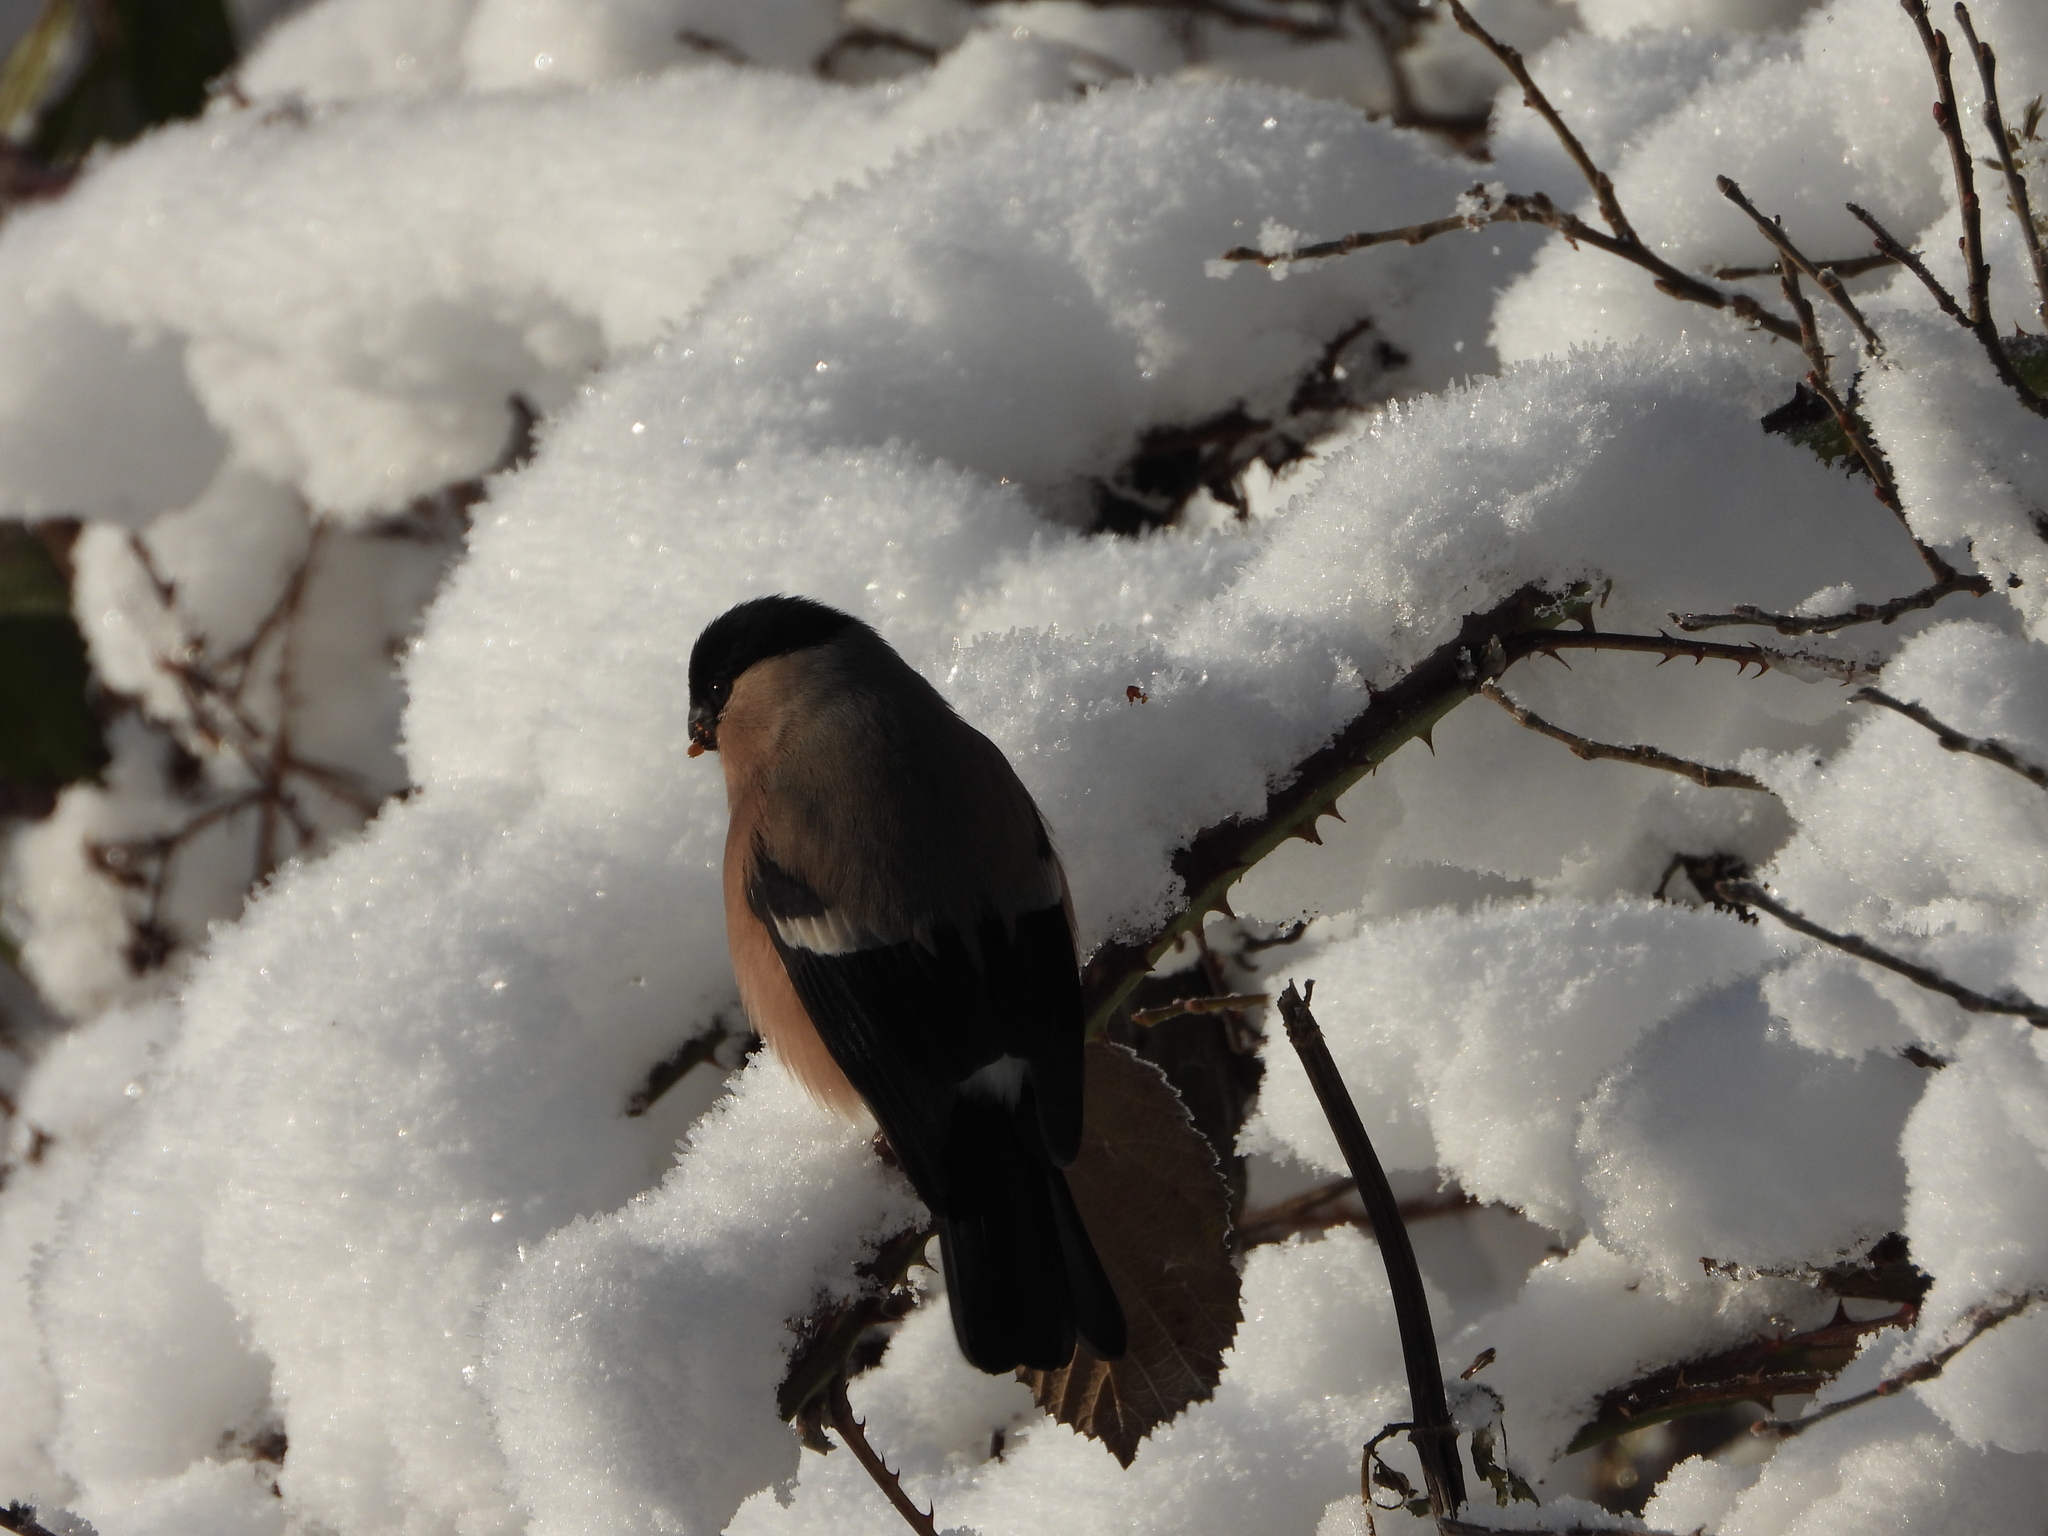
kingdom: Animalia
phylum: Chordata
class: Aves
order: Passeriformes
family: Fringillidae
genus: Pyrrhula
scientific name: Pyrrhula pyrrhula
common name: Eurasian bullfinch
